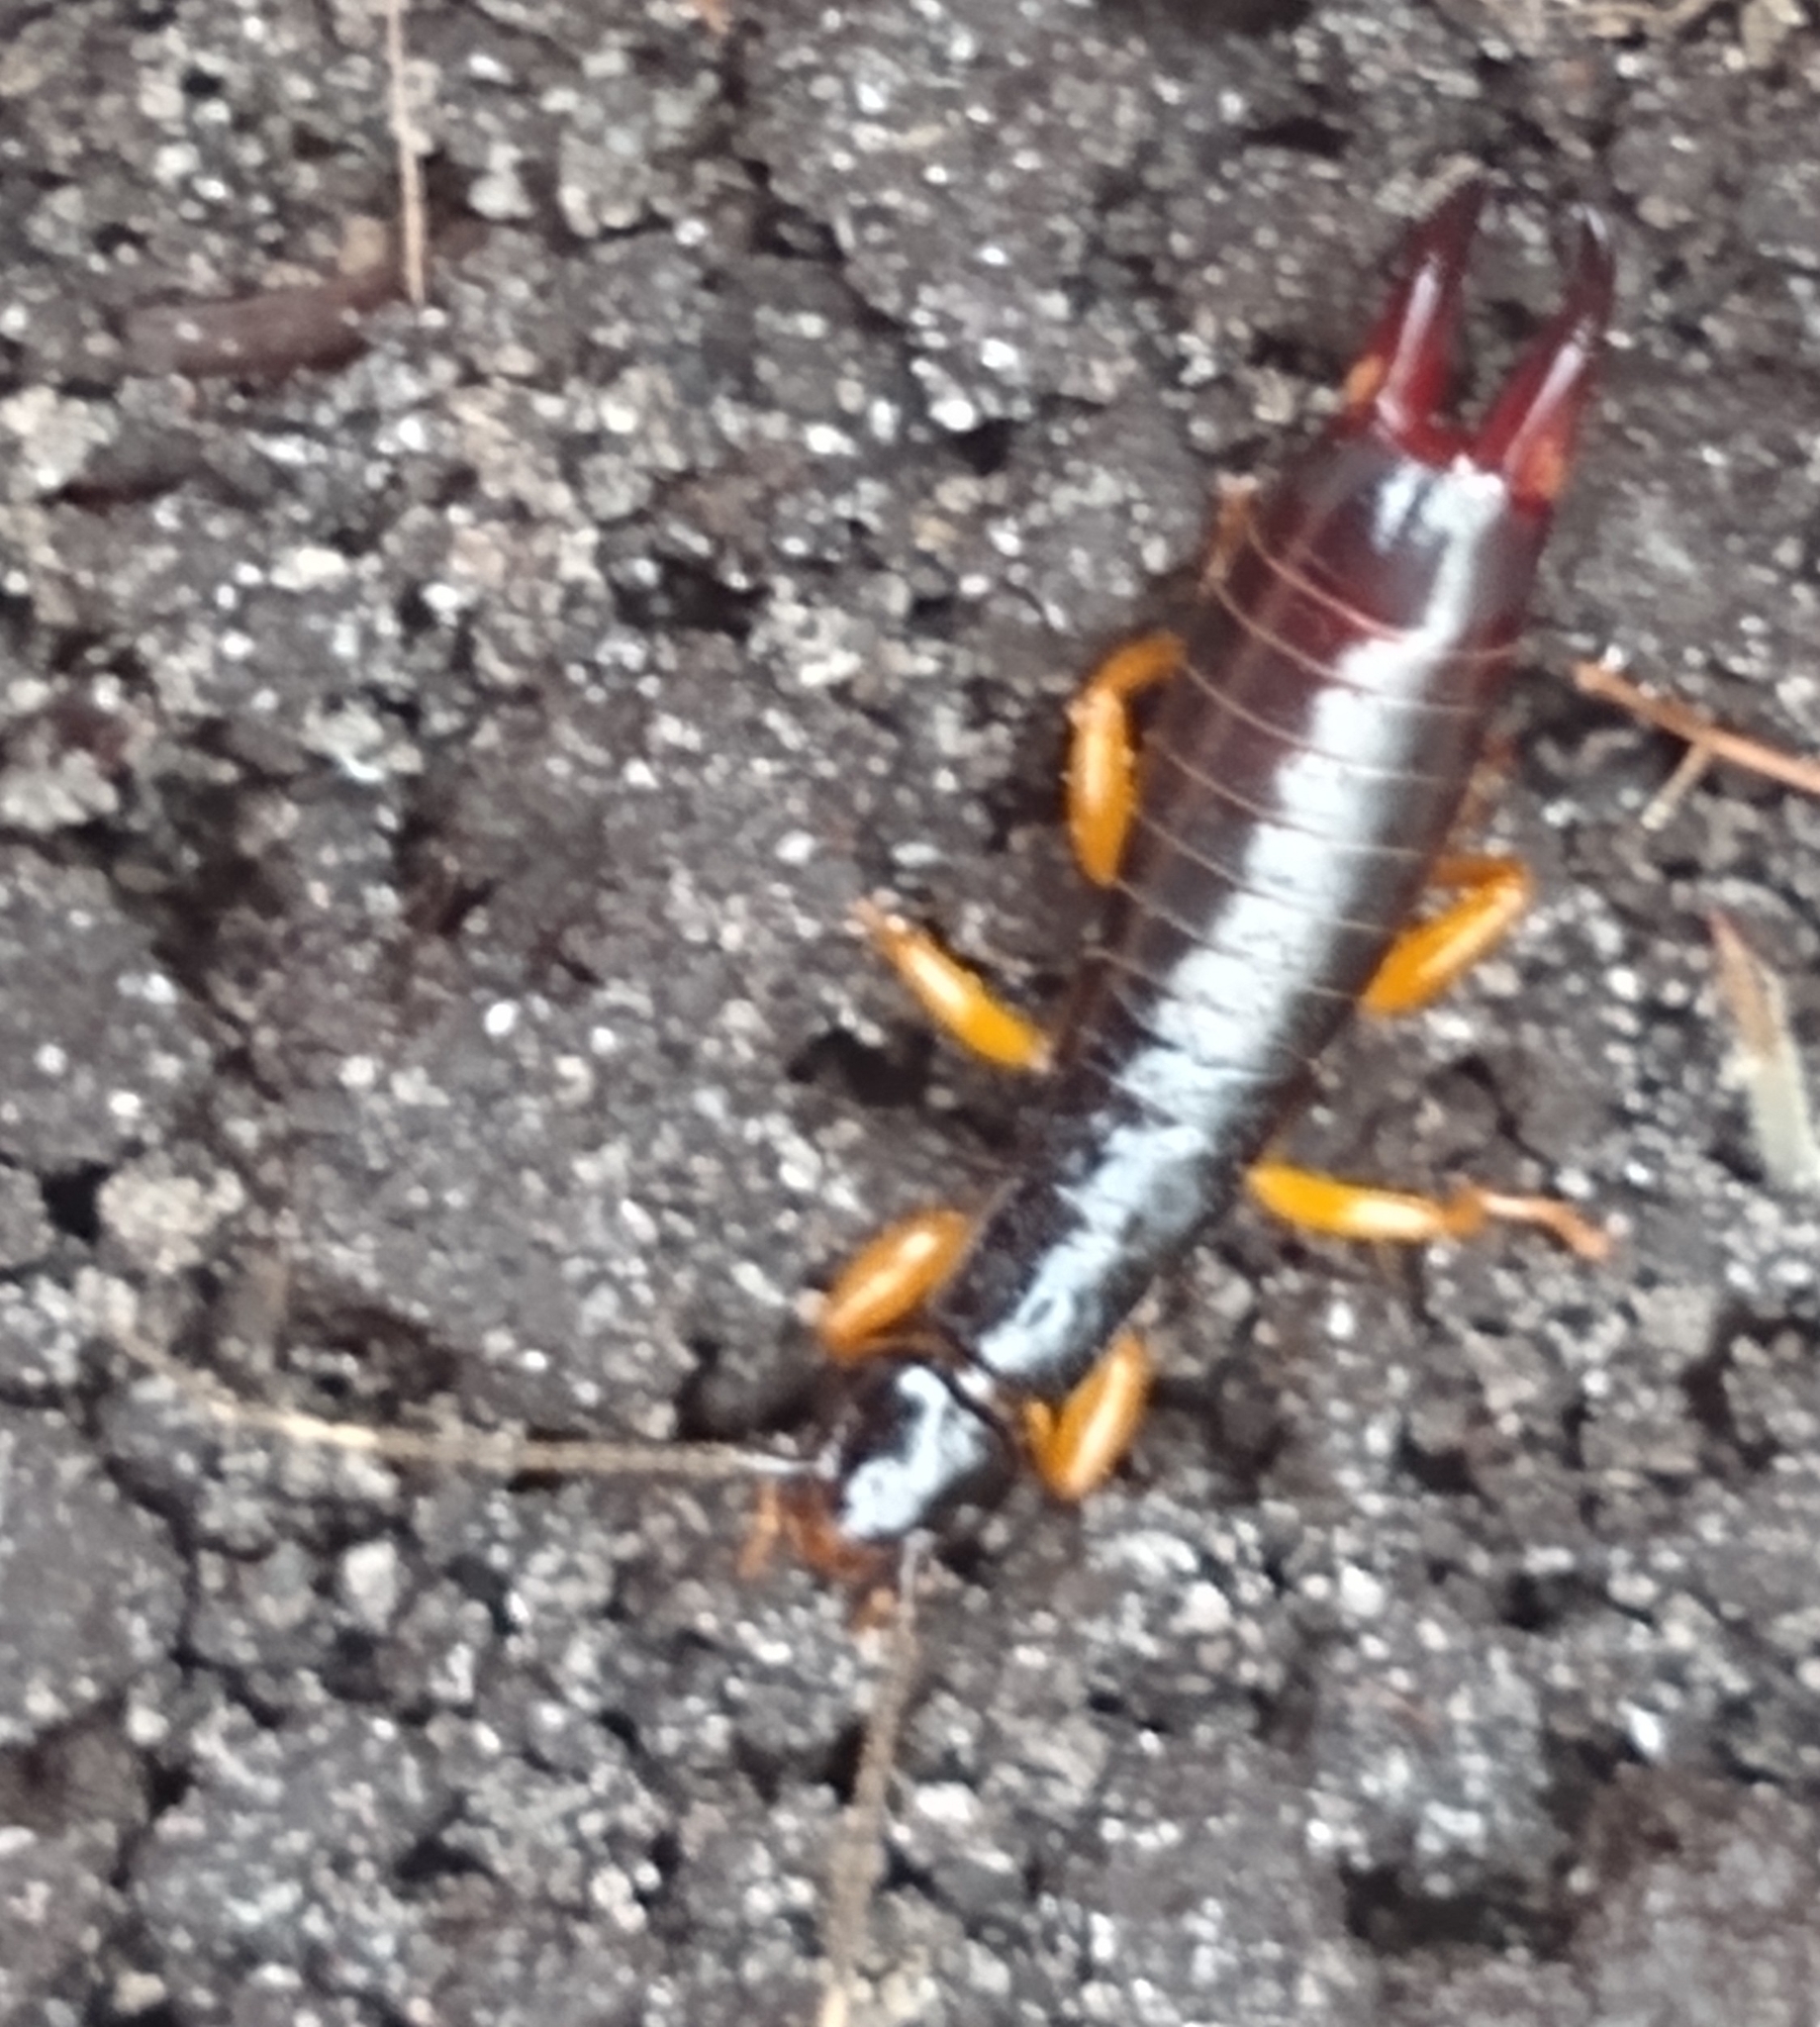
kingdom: Animalia
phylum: Arthropoda
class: Insecta
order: Dermaptera
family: Anisolabididae
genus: Euborellia
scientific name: Euborellia arcanum
